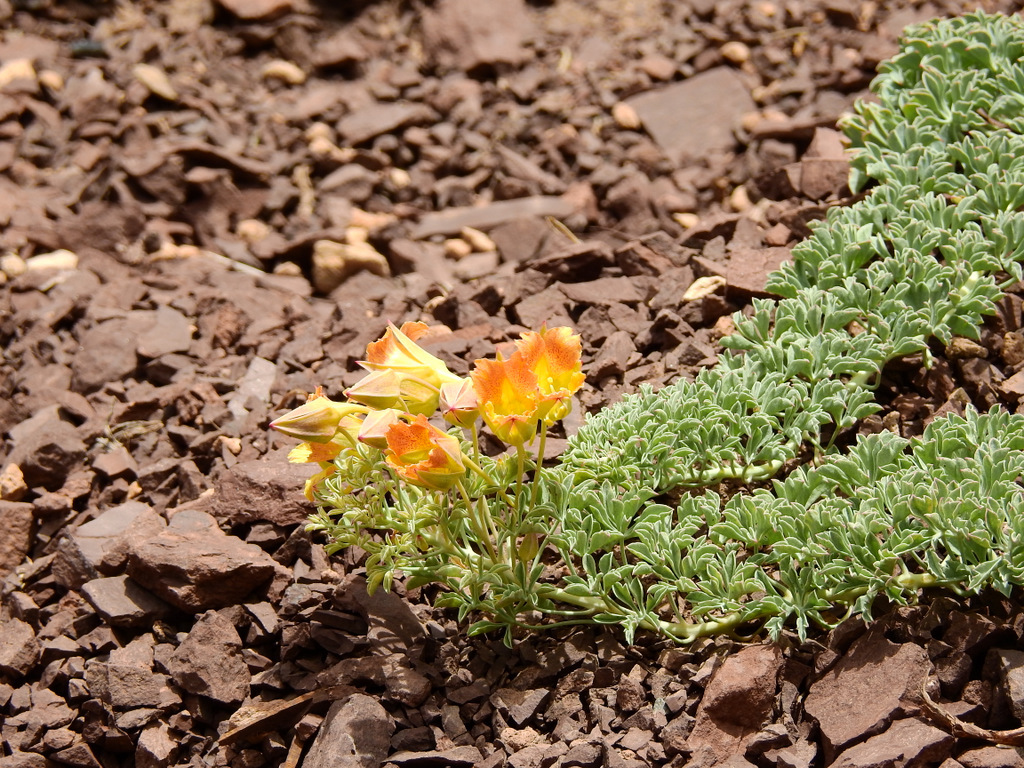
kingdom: Plantae
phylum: Tracheophyta
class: Magnoliopsida
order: Brassicales
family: Tropaeolaceae
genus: Tropaeolum
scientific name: Tropaeolum polyphyllum
